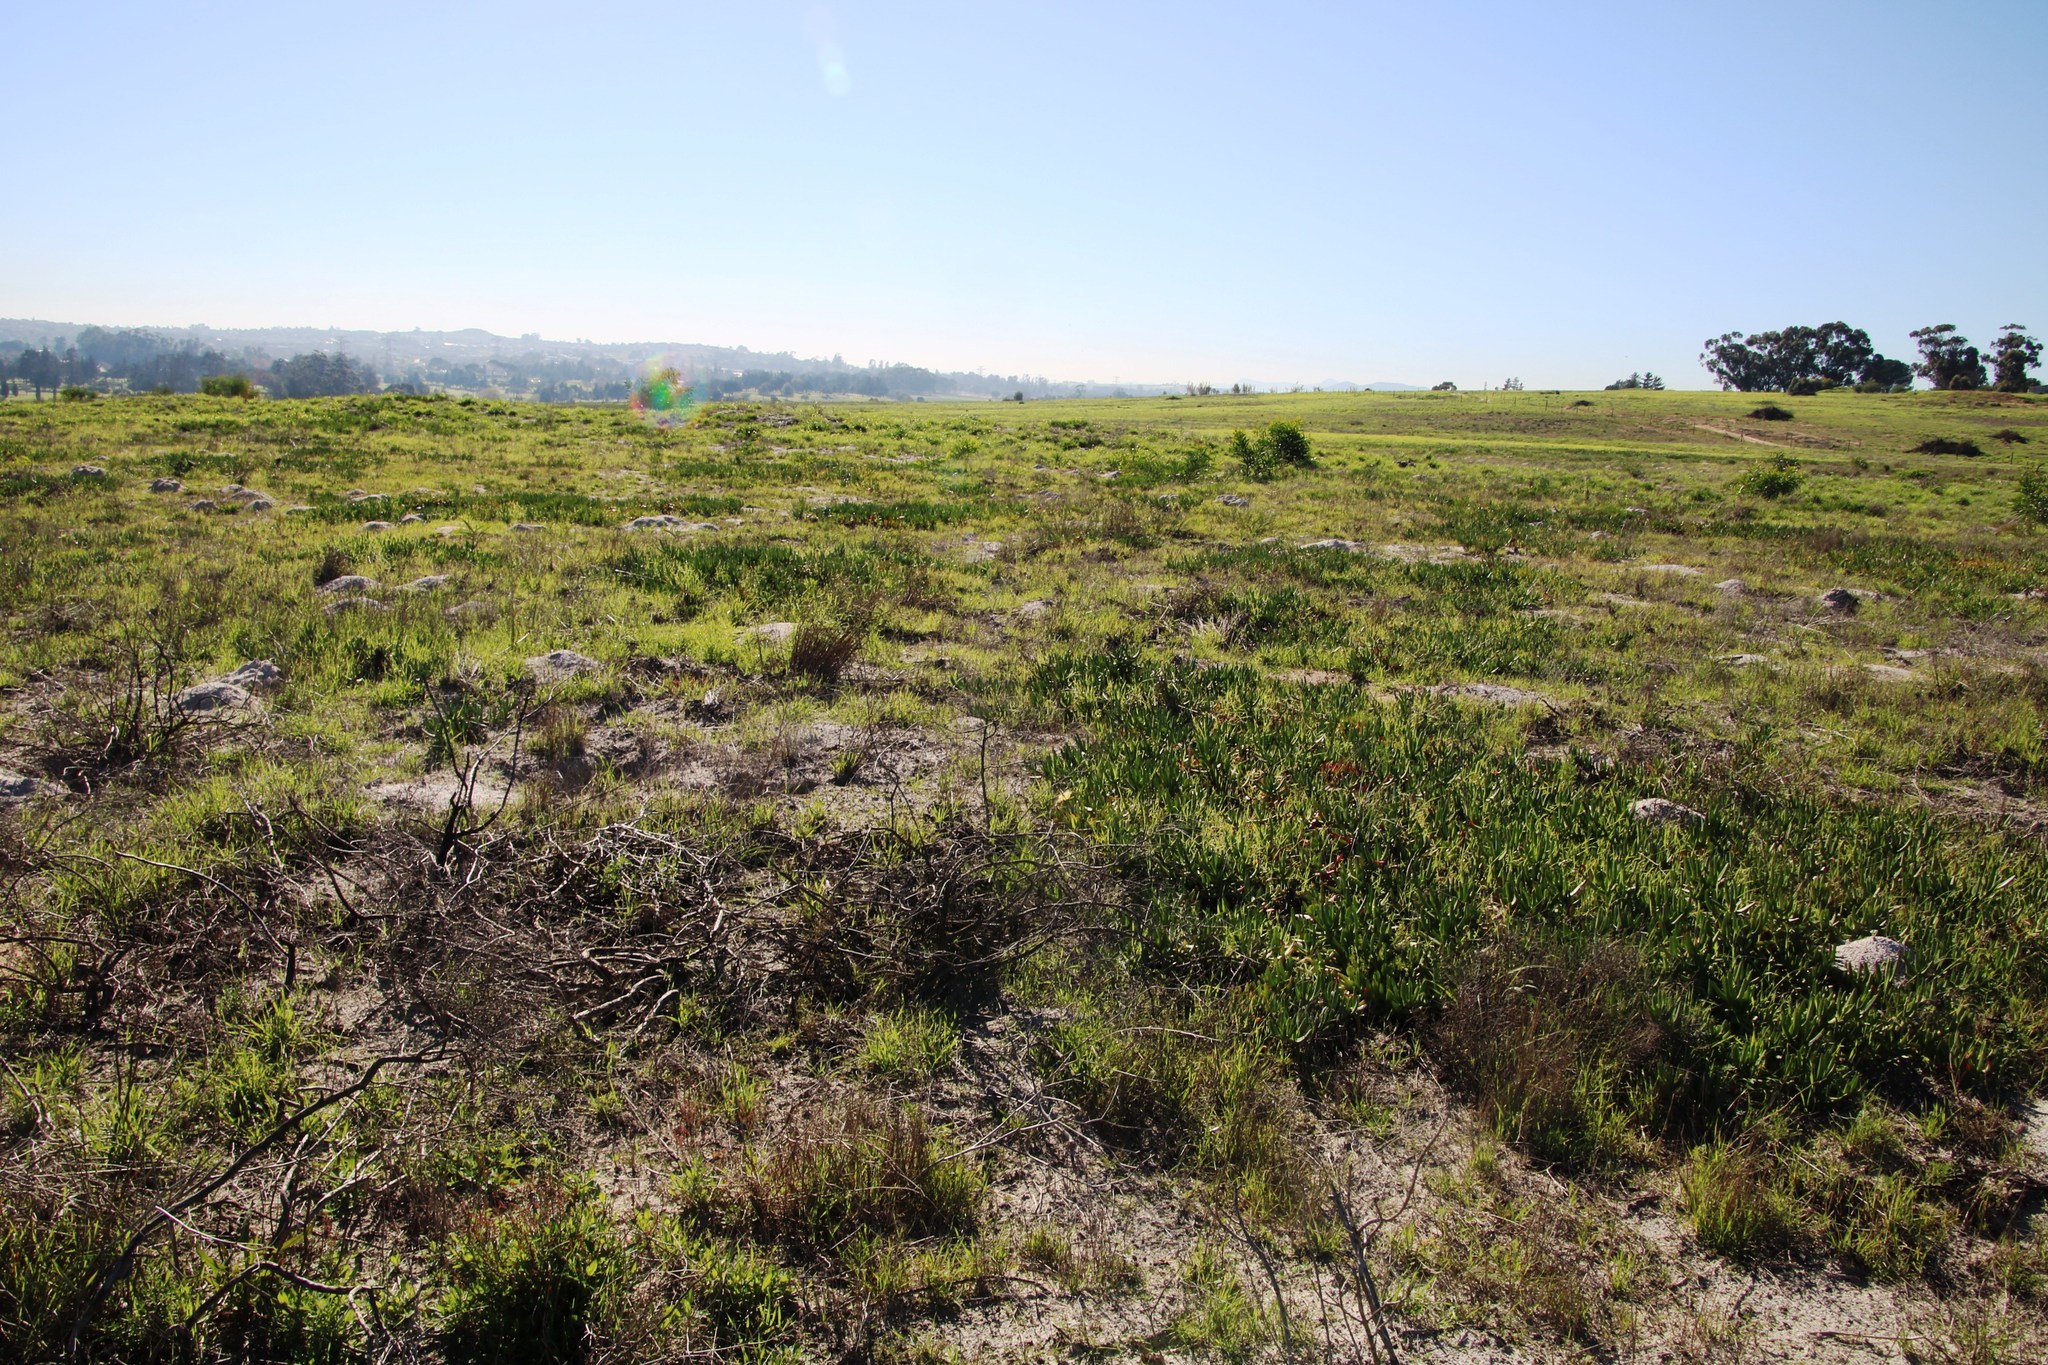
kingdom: Plantae
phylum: Tracheophyta
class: Magnoliopsida
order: Caryophyllales
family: Aizoaceae
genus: Carpobrotus
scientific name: Carpobrotus edulis
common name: Hottentot-fig
